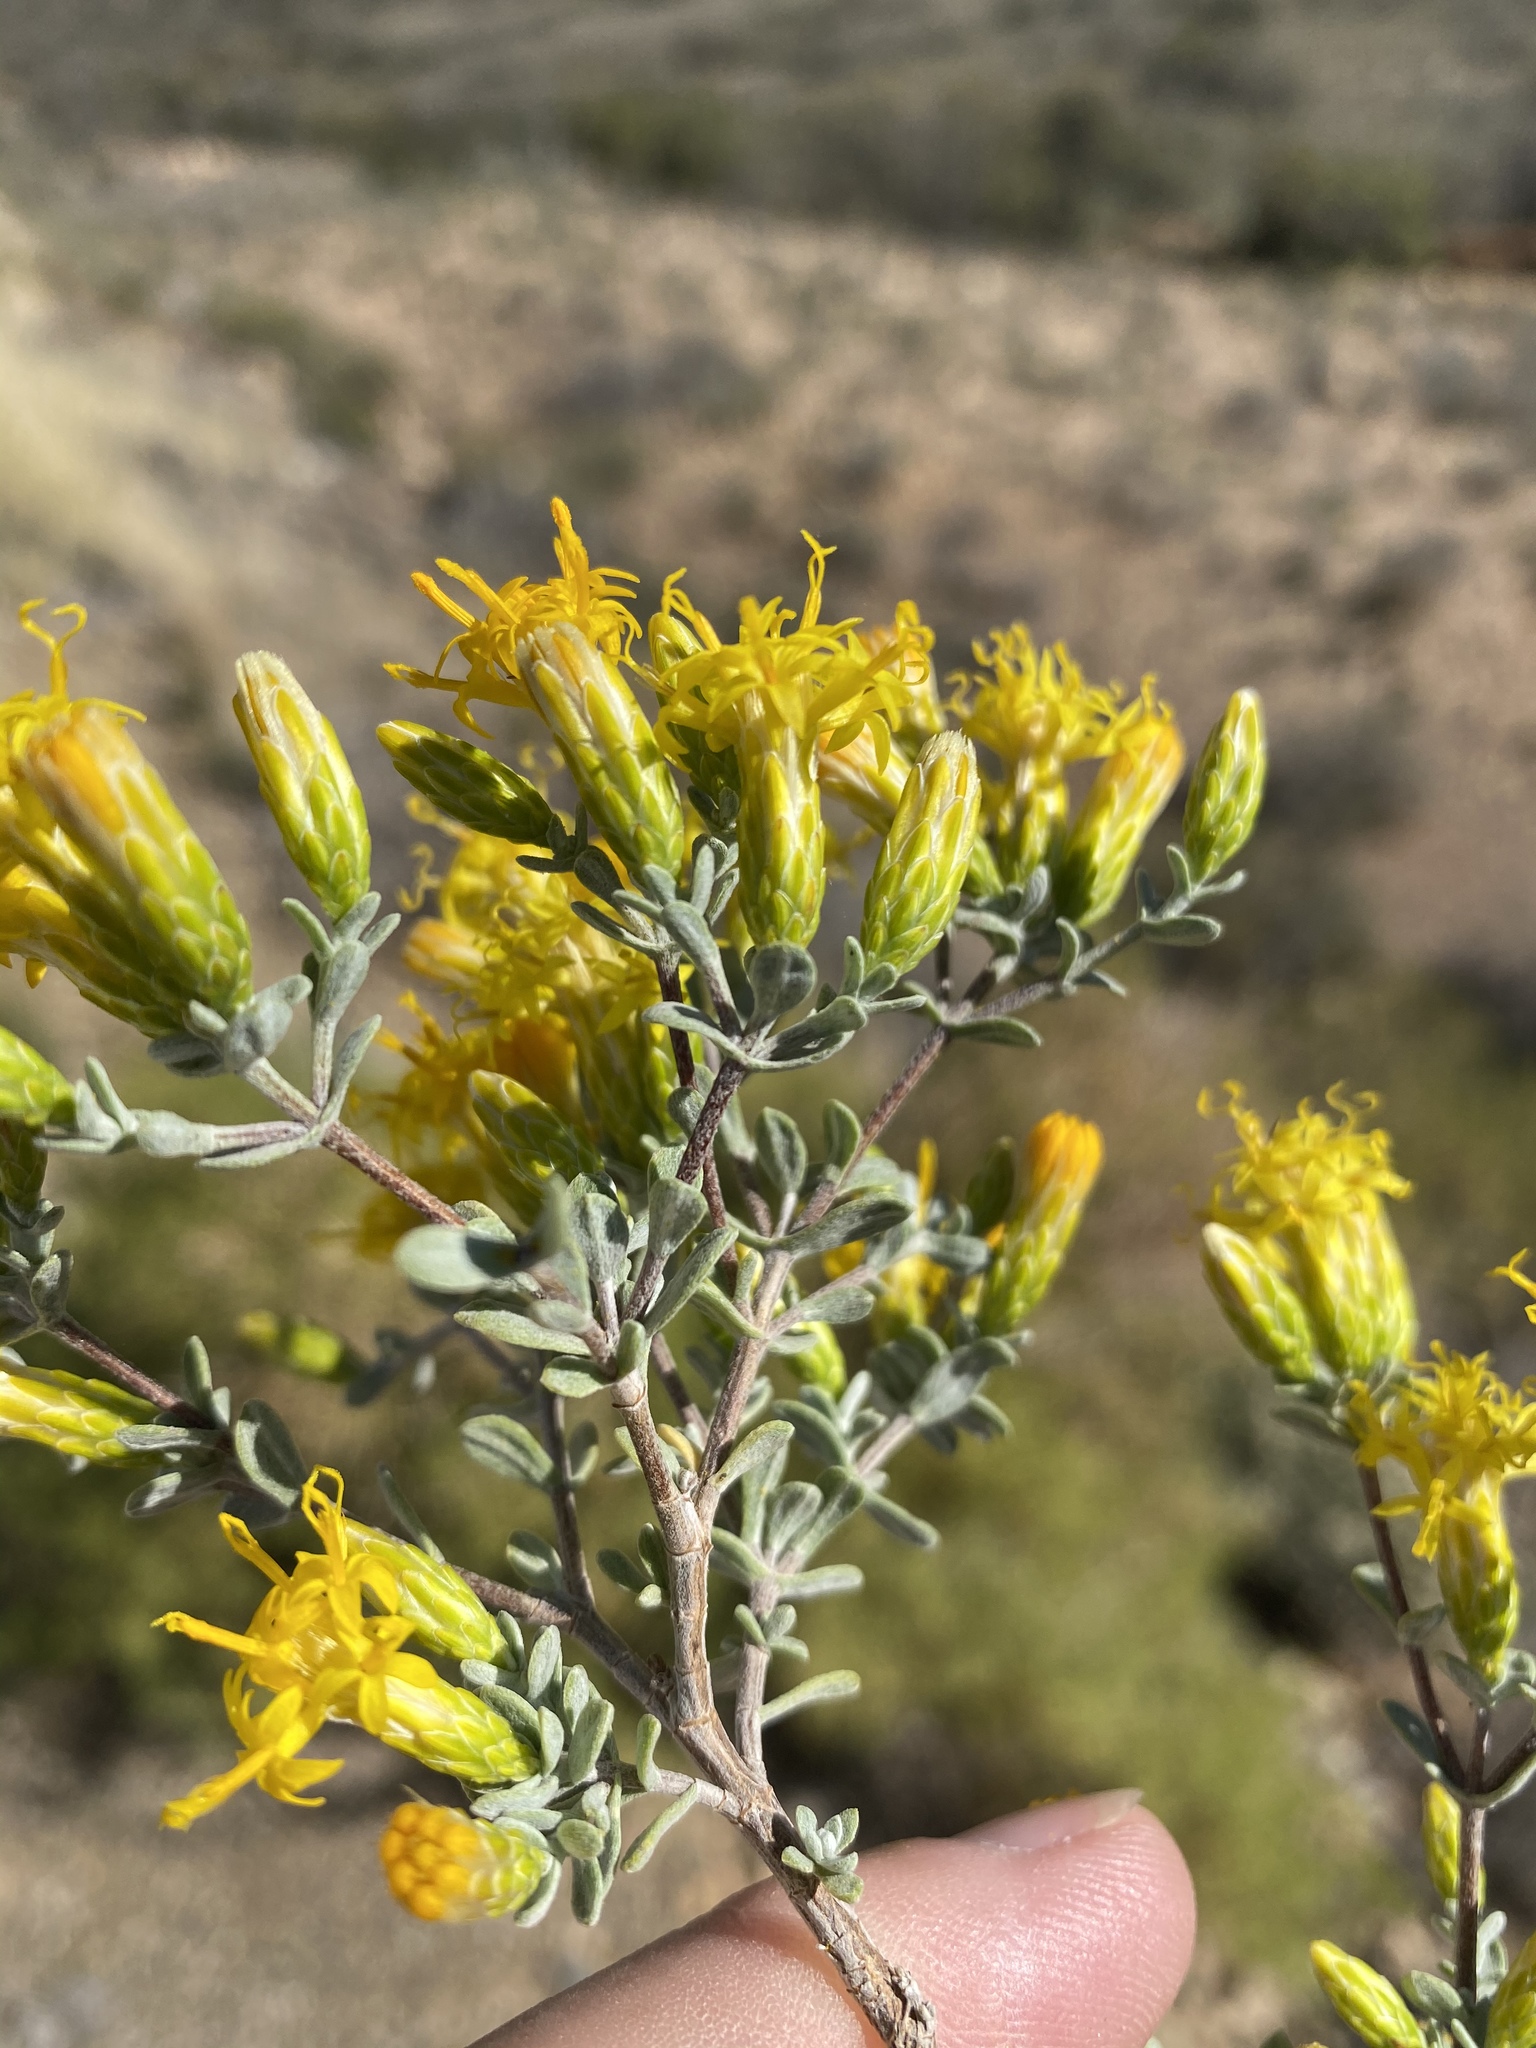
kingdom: Plantae
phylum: Tracheophyta
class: Magnoliopsida
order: Asterales
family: Asteraceae
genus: Pteronia
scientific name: Pteronia incana
